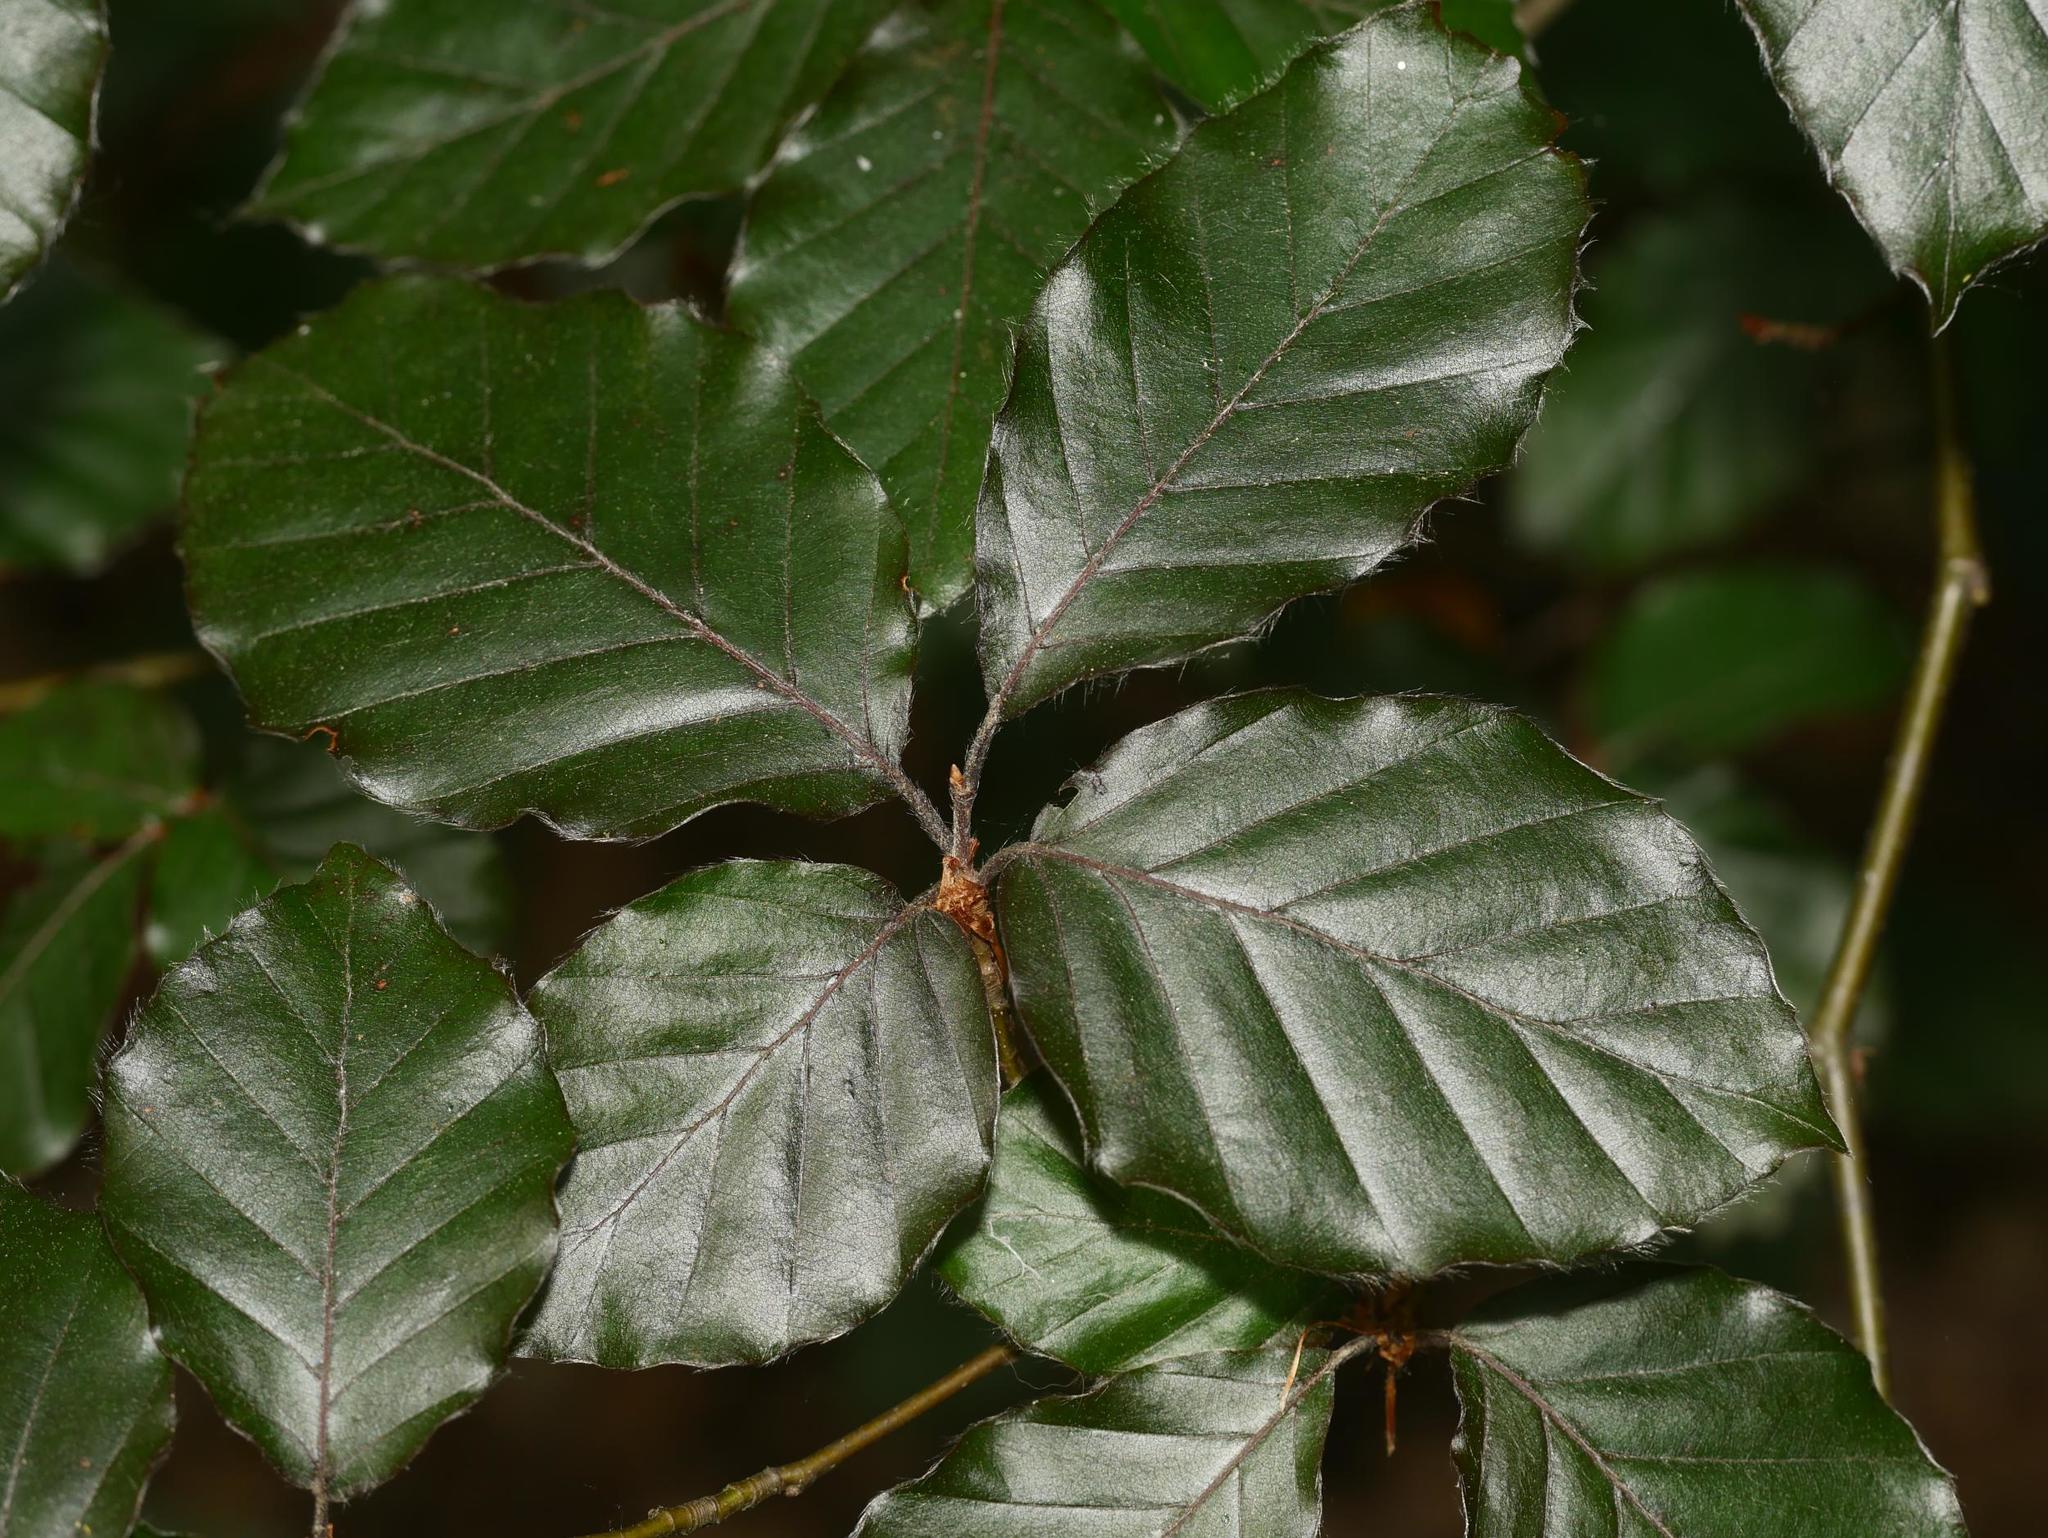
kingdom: Plantae
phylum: Tracheophyta
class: Magnoliopsida
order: Fagales
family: Fagaceae
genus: Fagus
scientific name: Fagus sylvatica
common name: Beech
